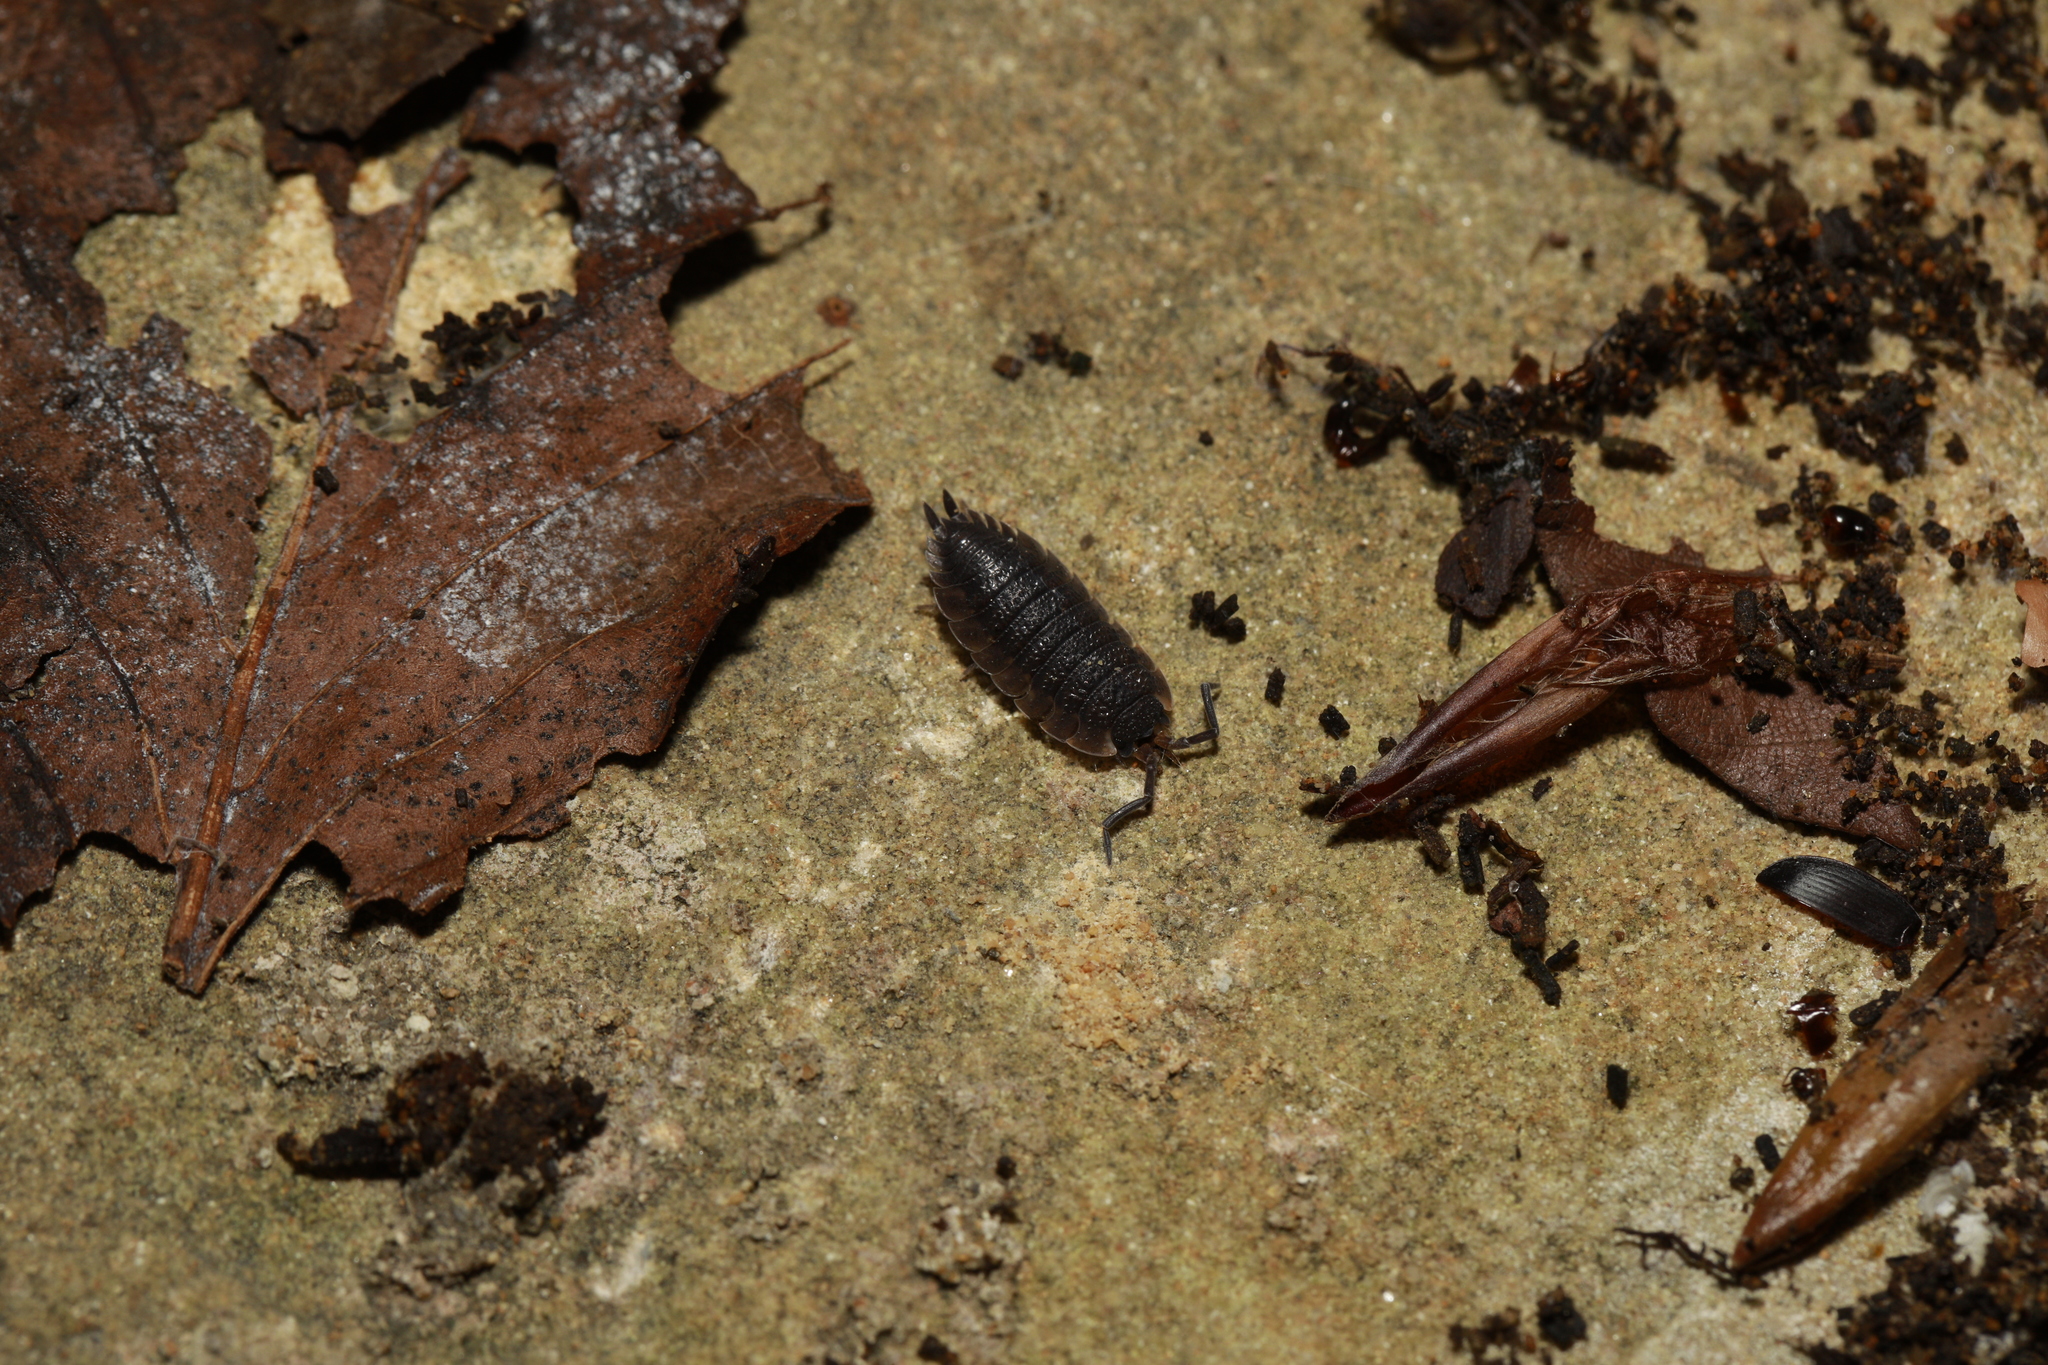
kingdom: Animalia
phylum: Arthropoda
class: Malacostraca
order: Isopoda
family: Porcellionidae
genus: Porcellio
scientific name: Porcellio scaber
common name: Common rough woodlouse
